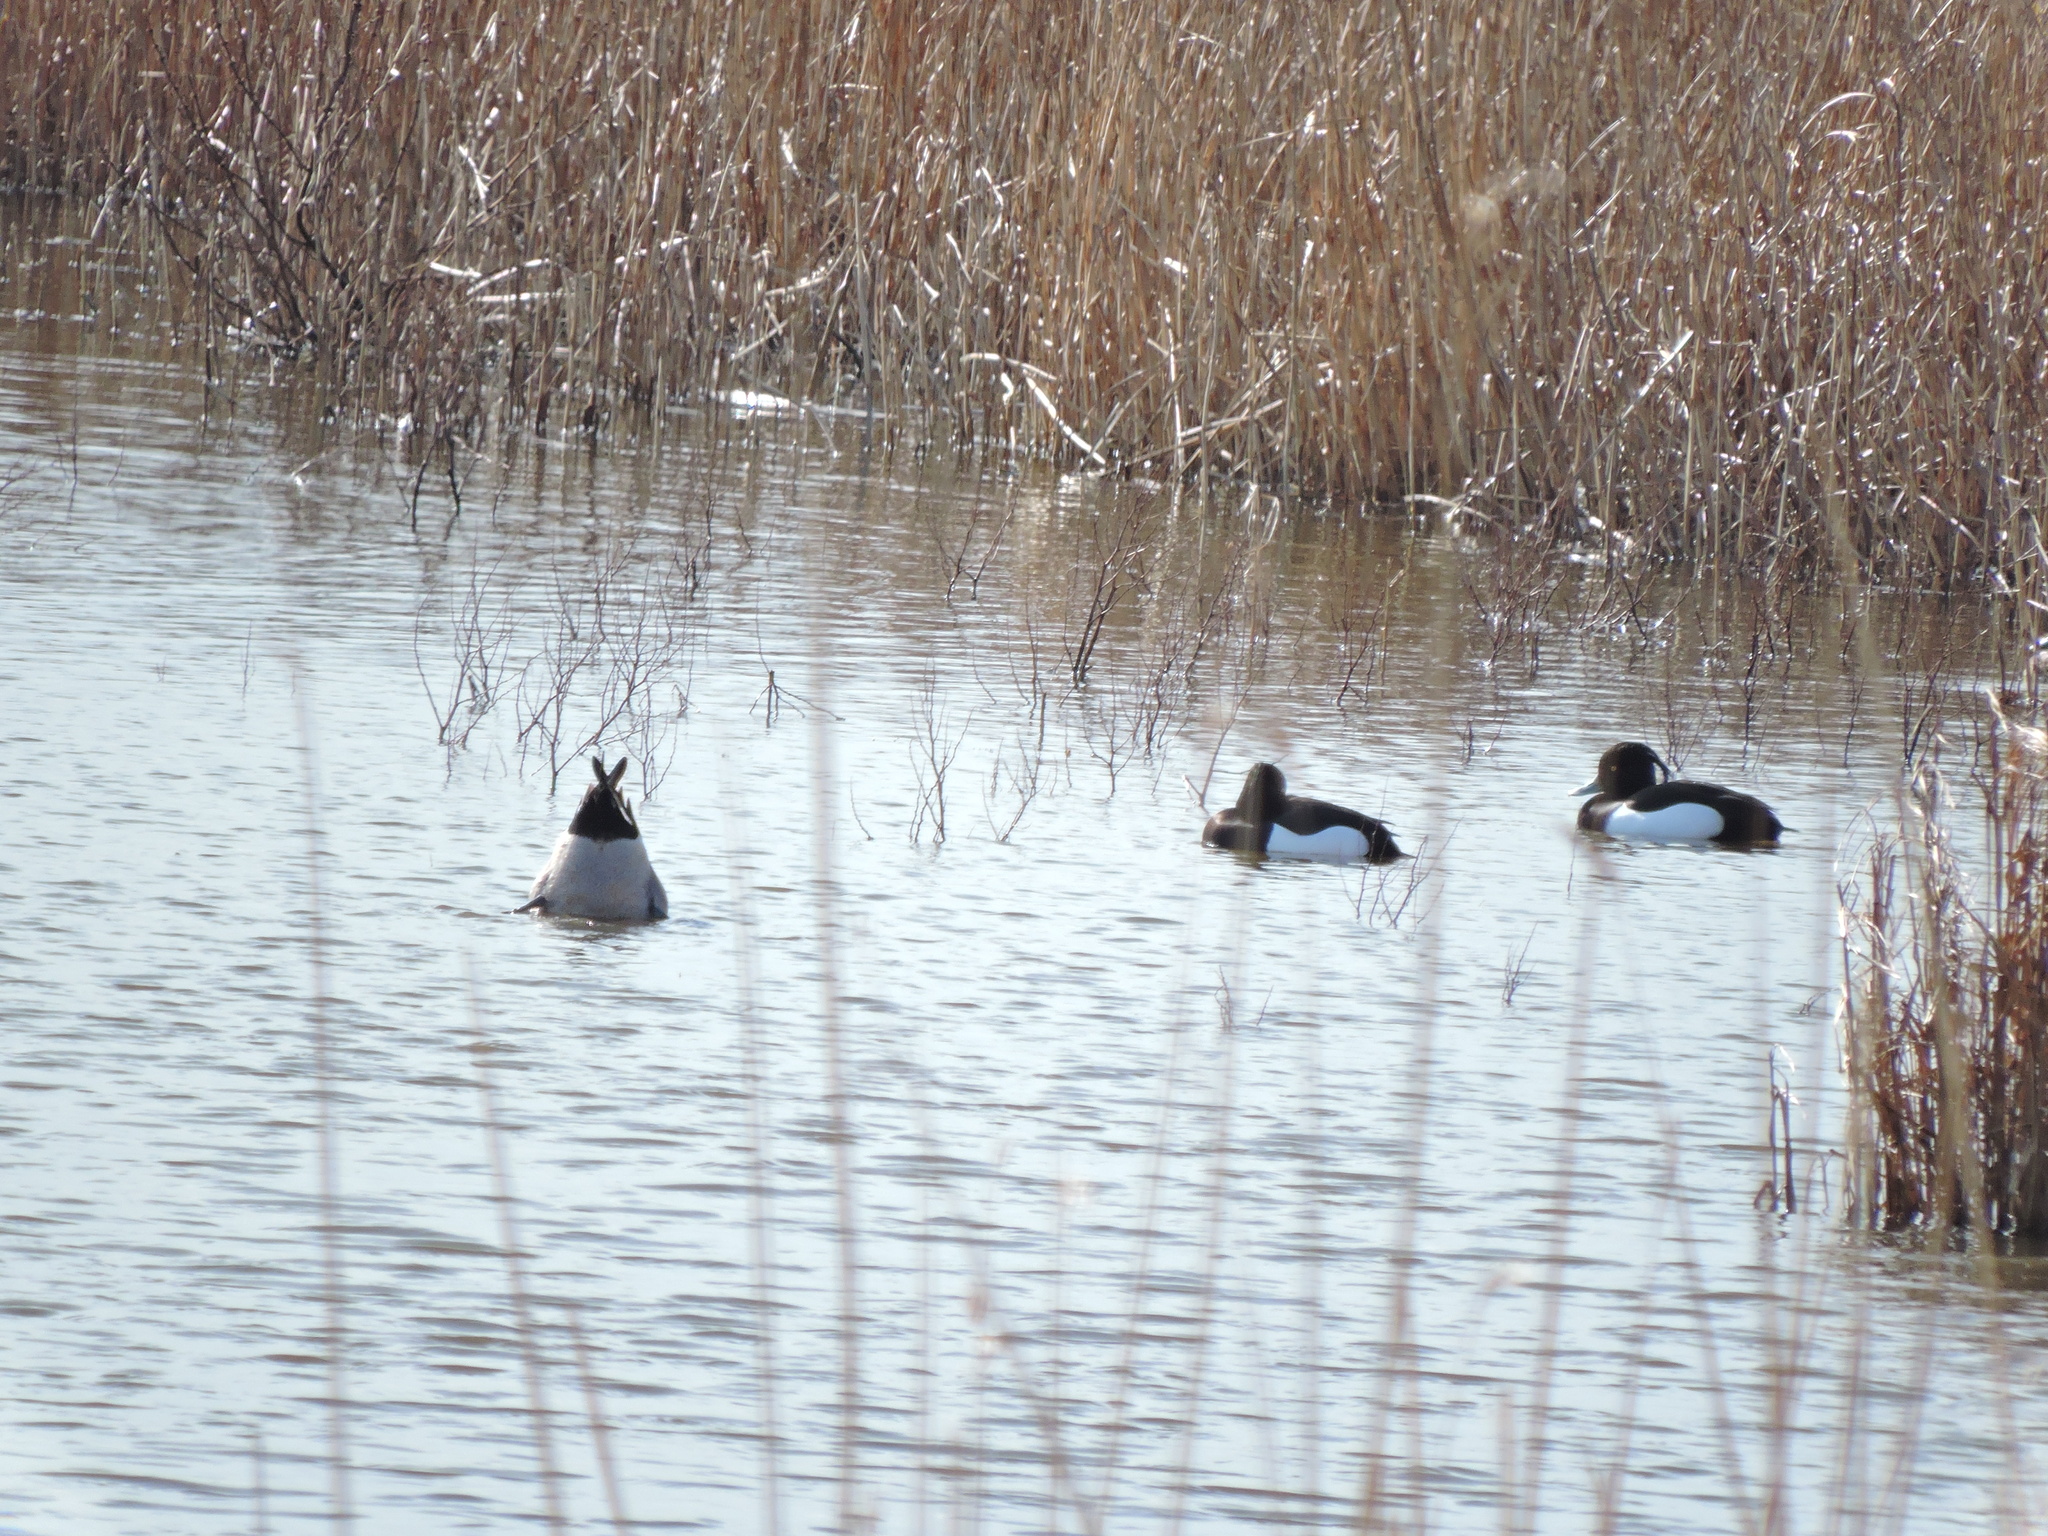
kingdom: Animalia
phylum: Chordata
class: Aves
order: Anseriformes
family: Anatidae
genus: Aythya
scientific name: Aythya fuligula
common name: Tufted duck
